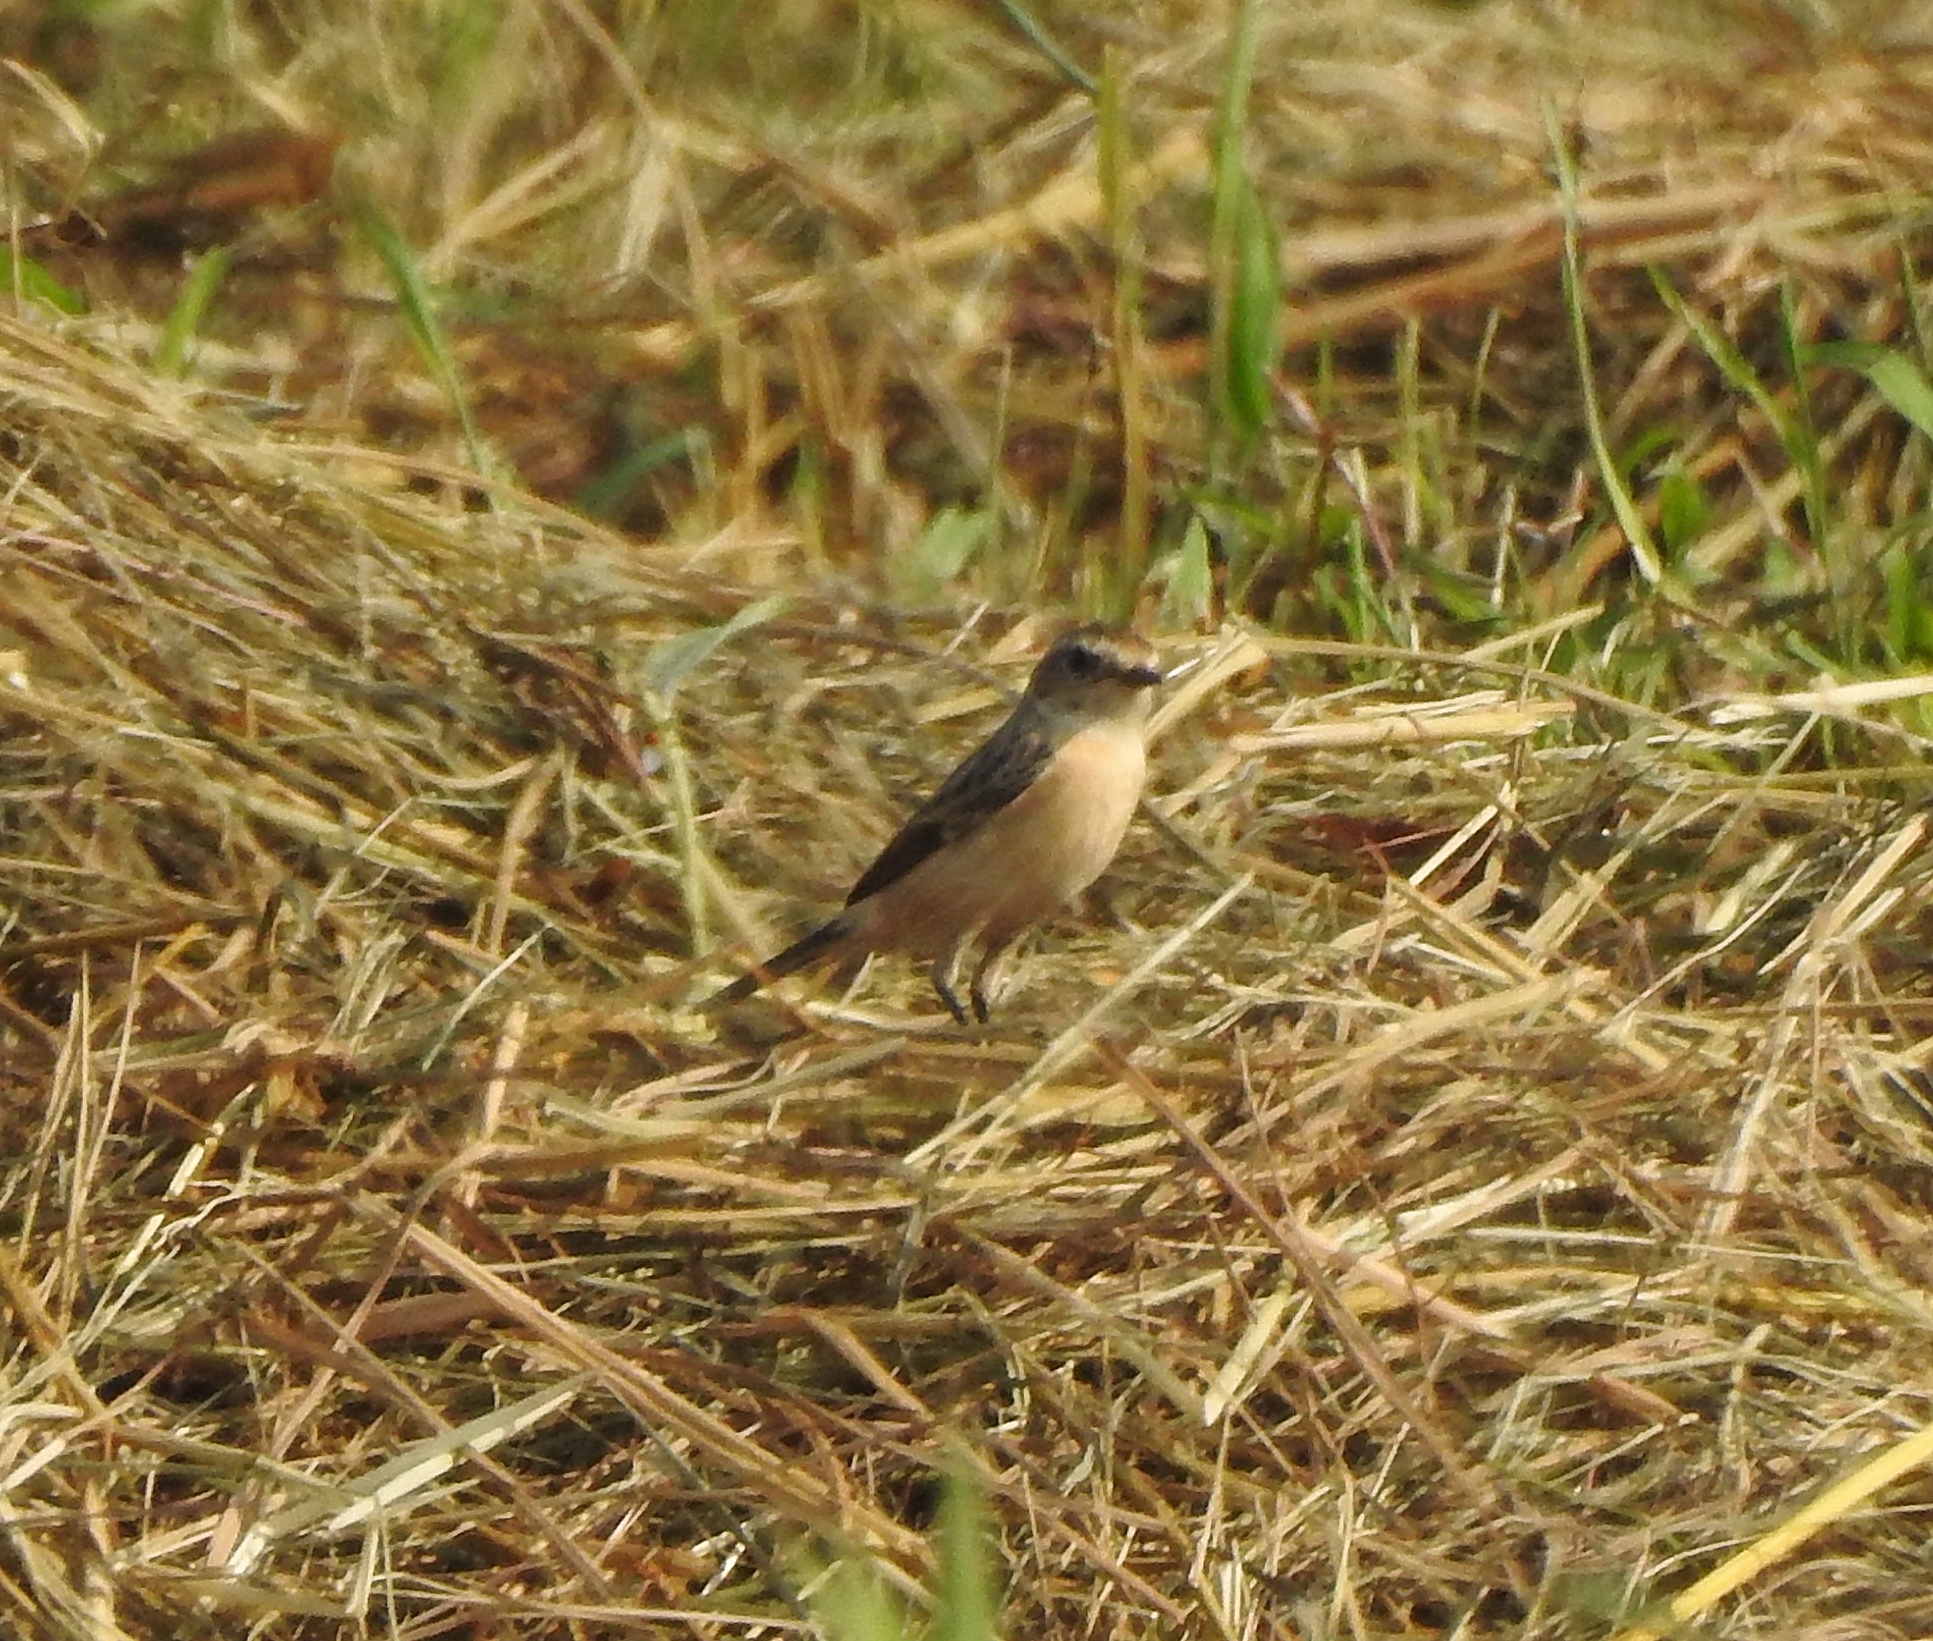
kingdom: Animalia
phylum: Chordata
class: Aves
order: Passeriformes
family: Muscicapidae
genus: Saxicola
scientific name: Saxicola maurus
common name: Siberian stonechat
